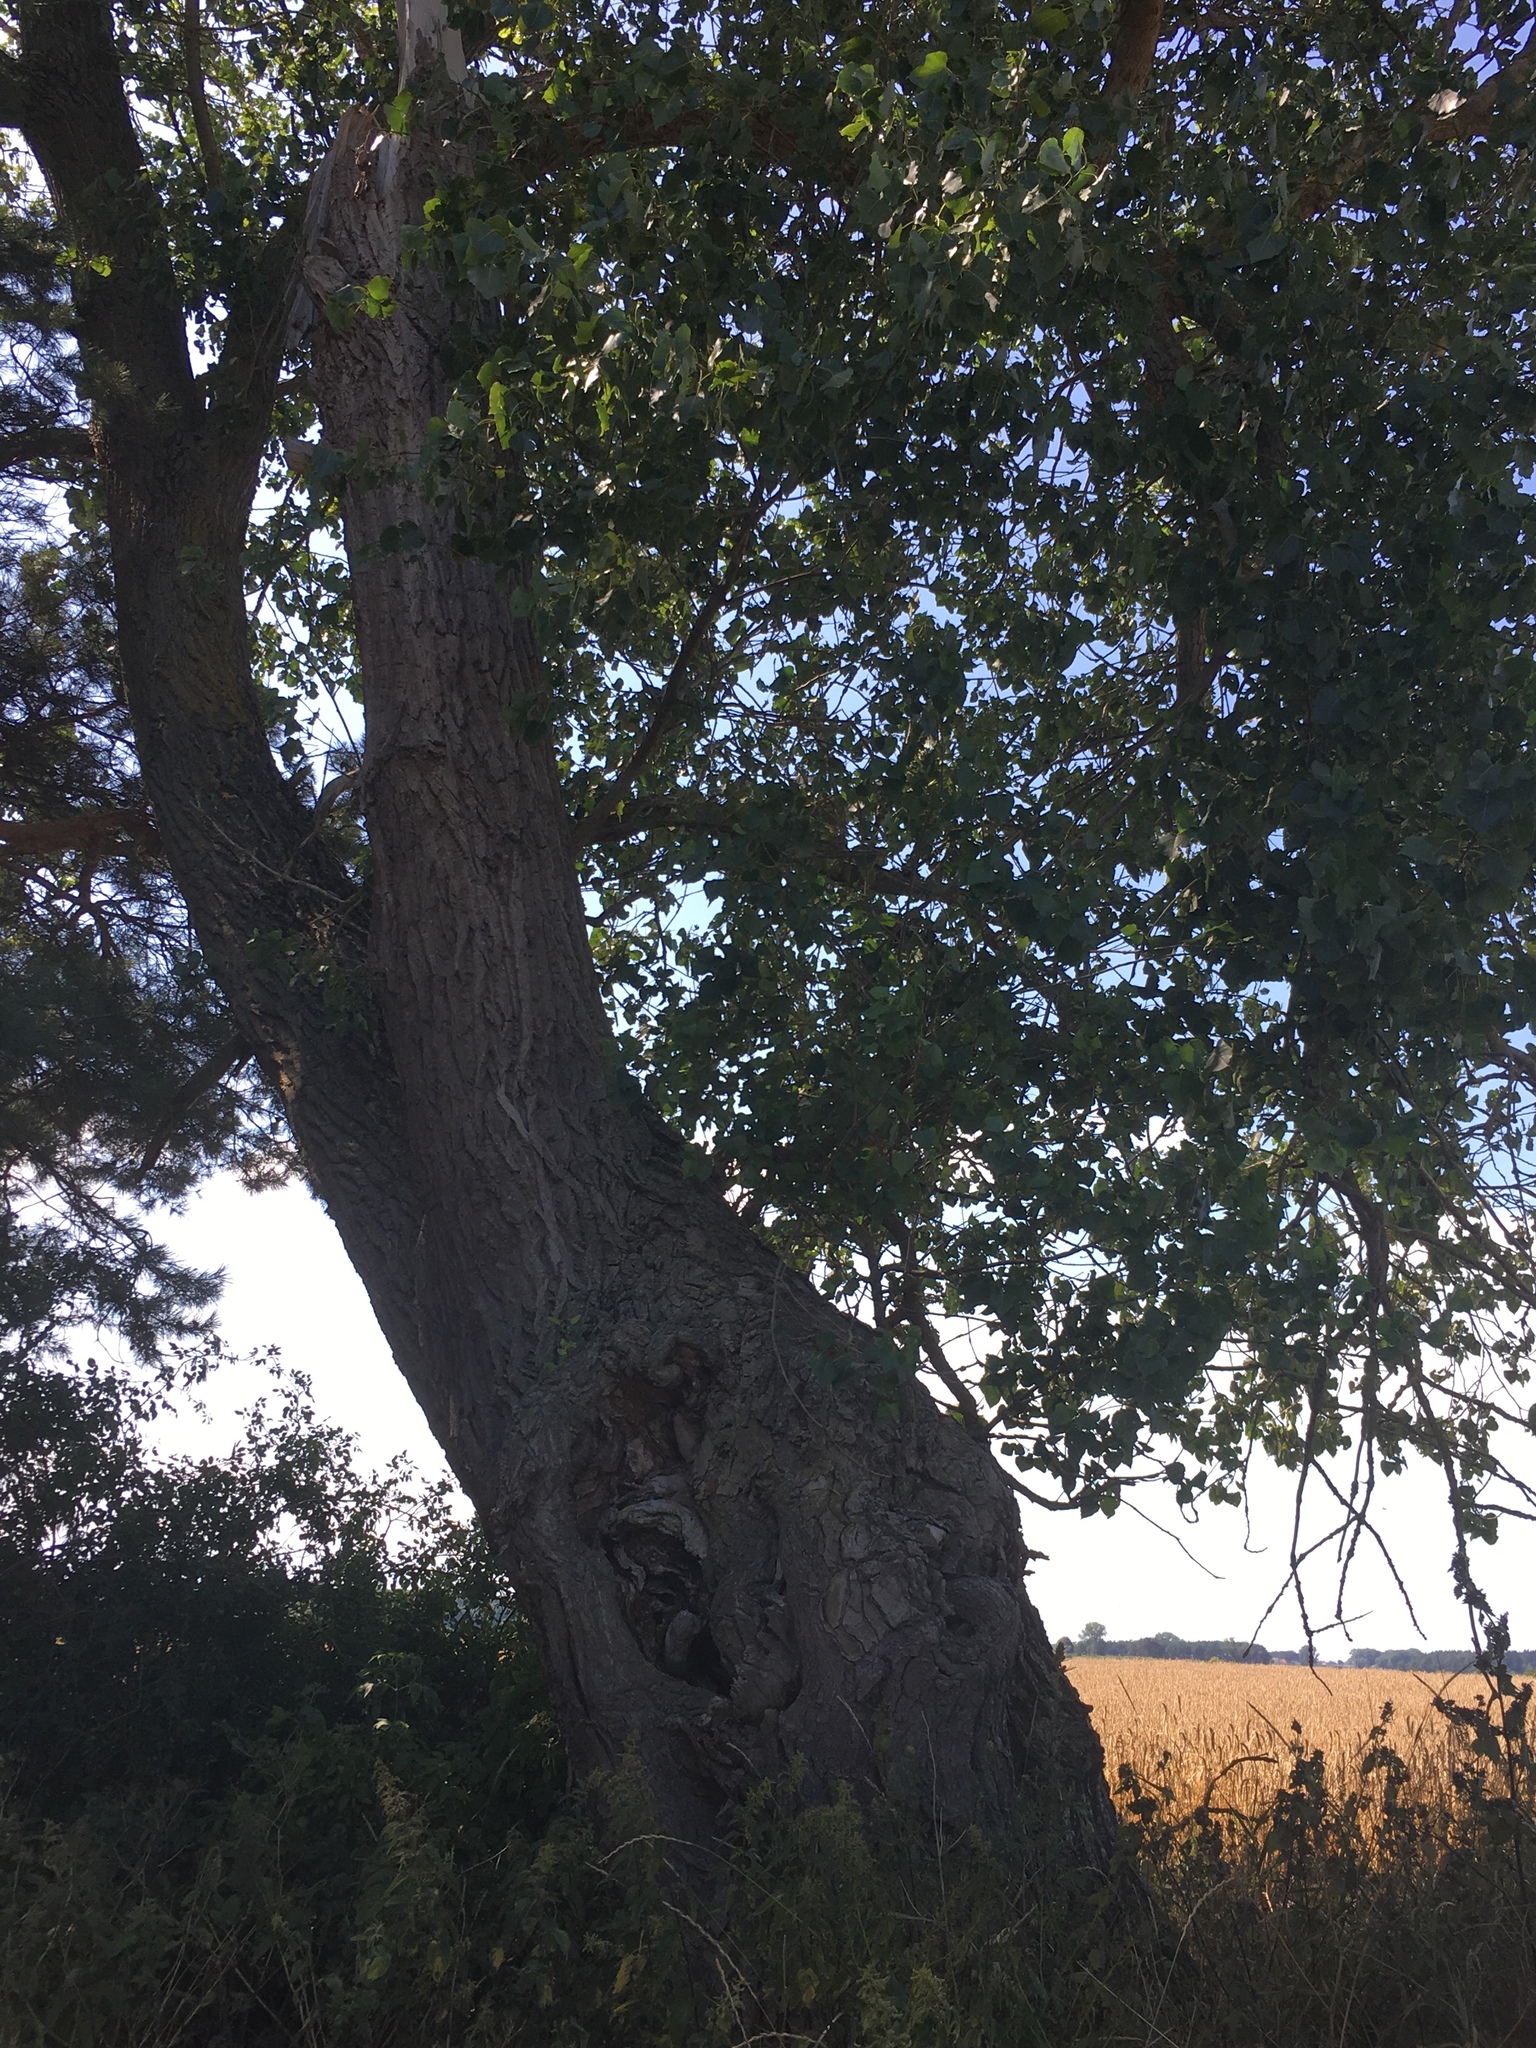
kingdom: Plantae
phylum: Tracheophyta
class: Magnoliopsida
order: Malpighiales
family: Salicaceae
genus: Populus
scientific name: Populus nigra
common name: Black poplar
